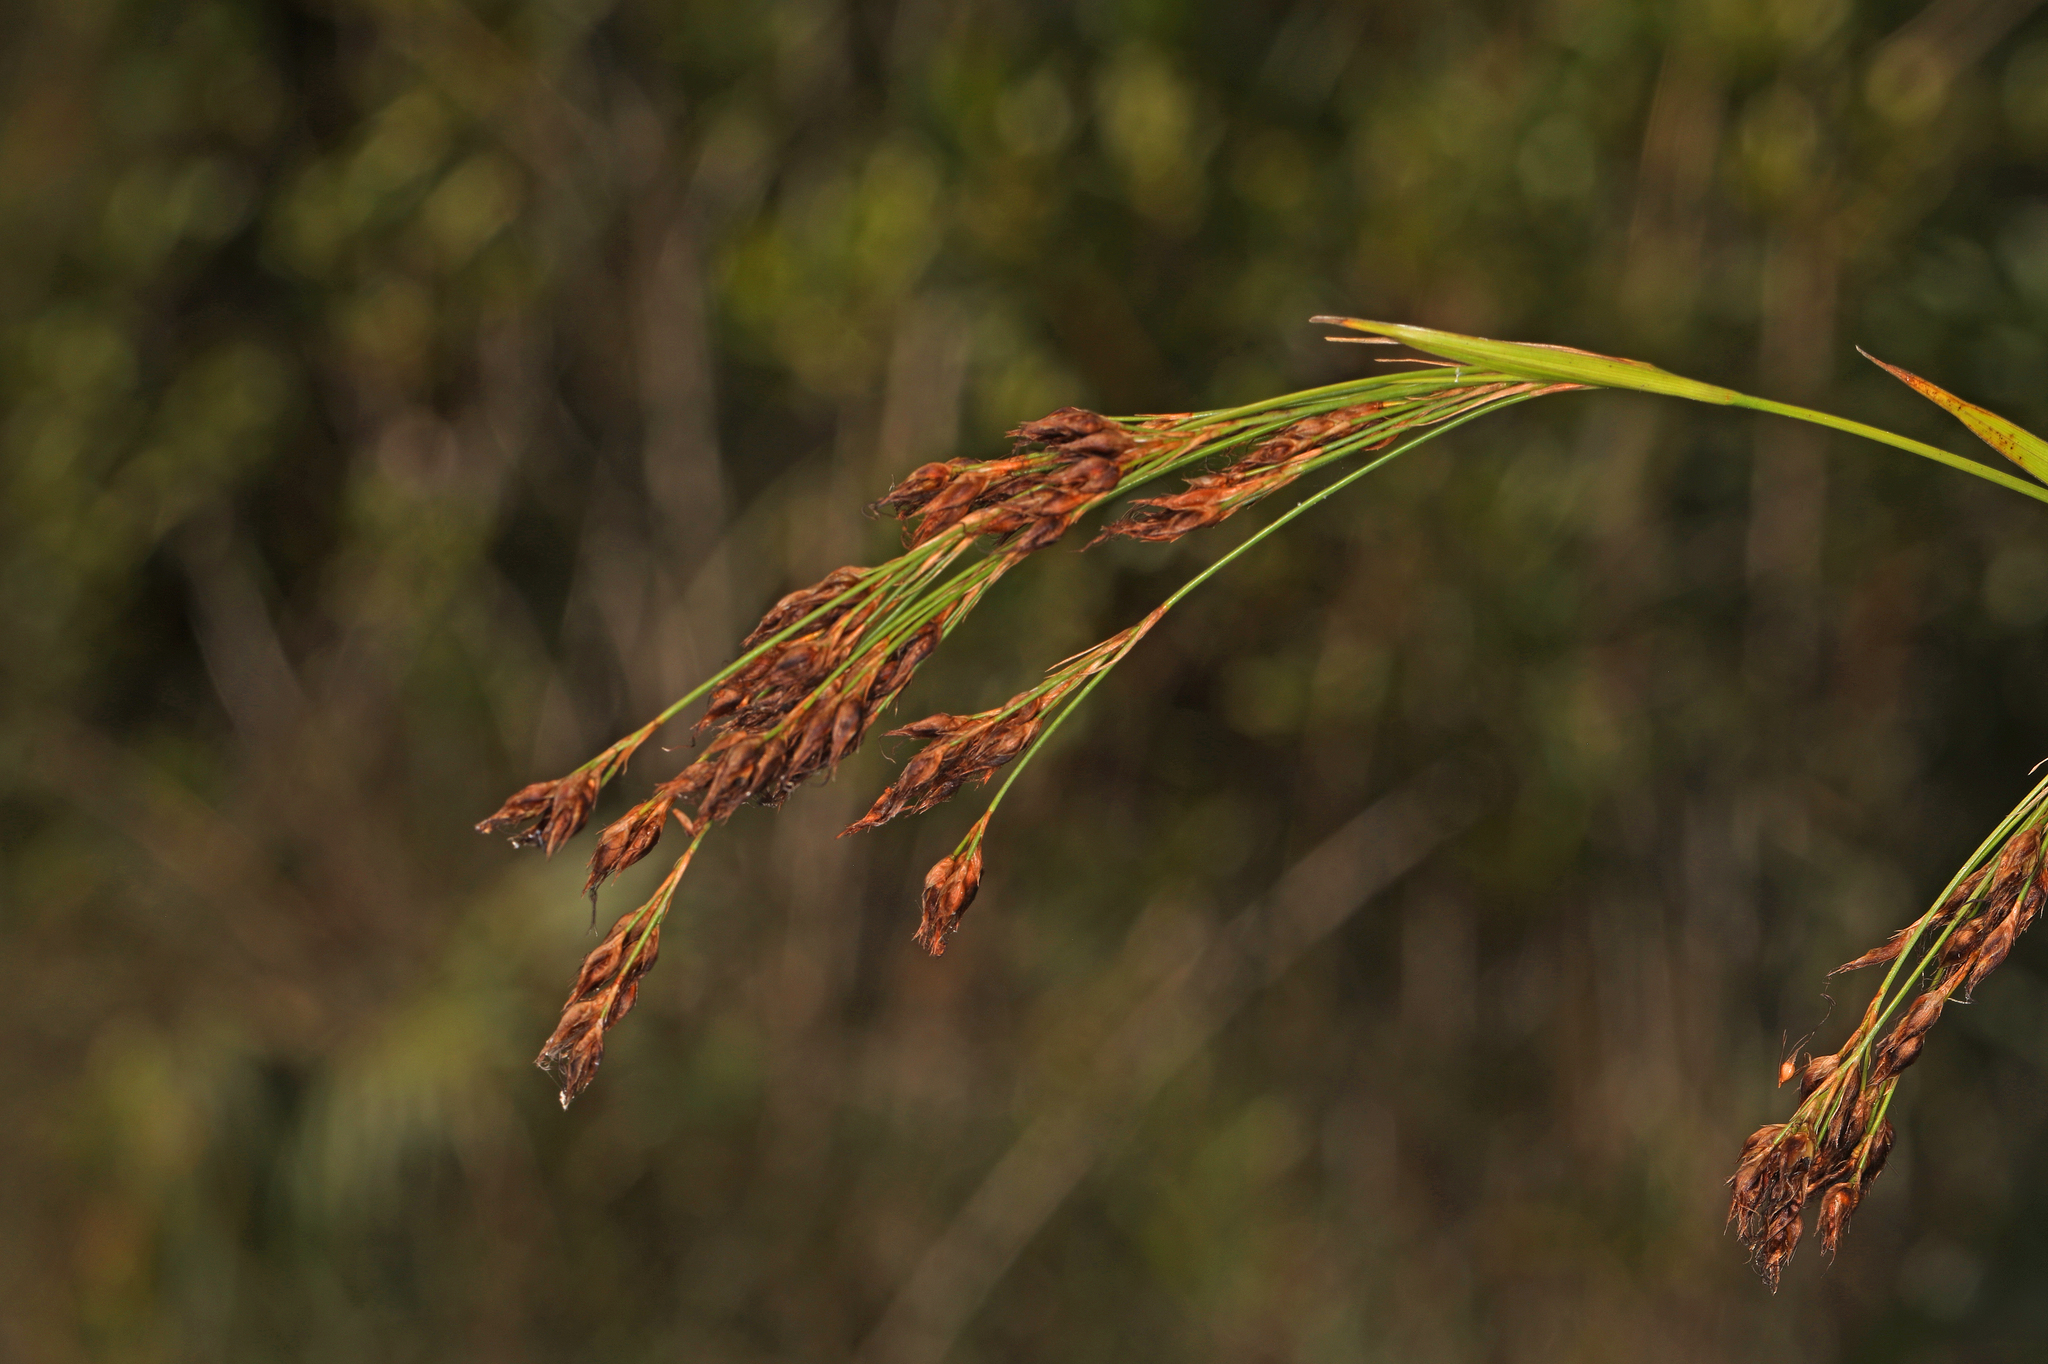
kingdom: Plantae
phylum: Tracheophyta
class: Liliopsida
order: Poales
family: Cyperaceae
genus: Rhynchospora
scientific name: Rhynchospora odorata
